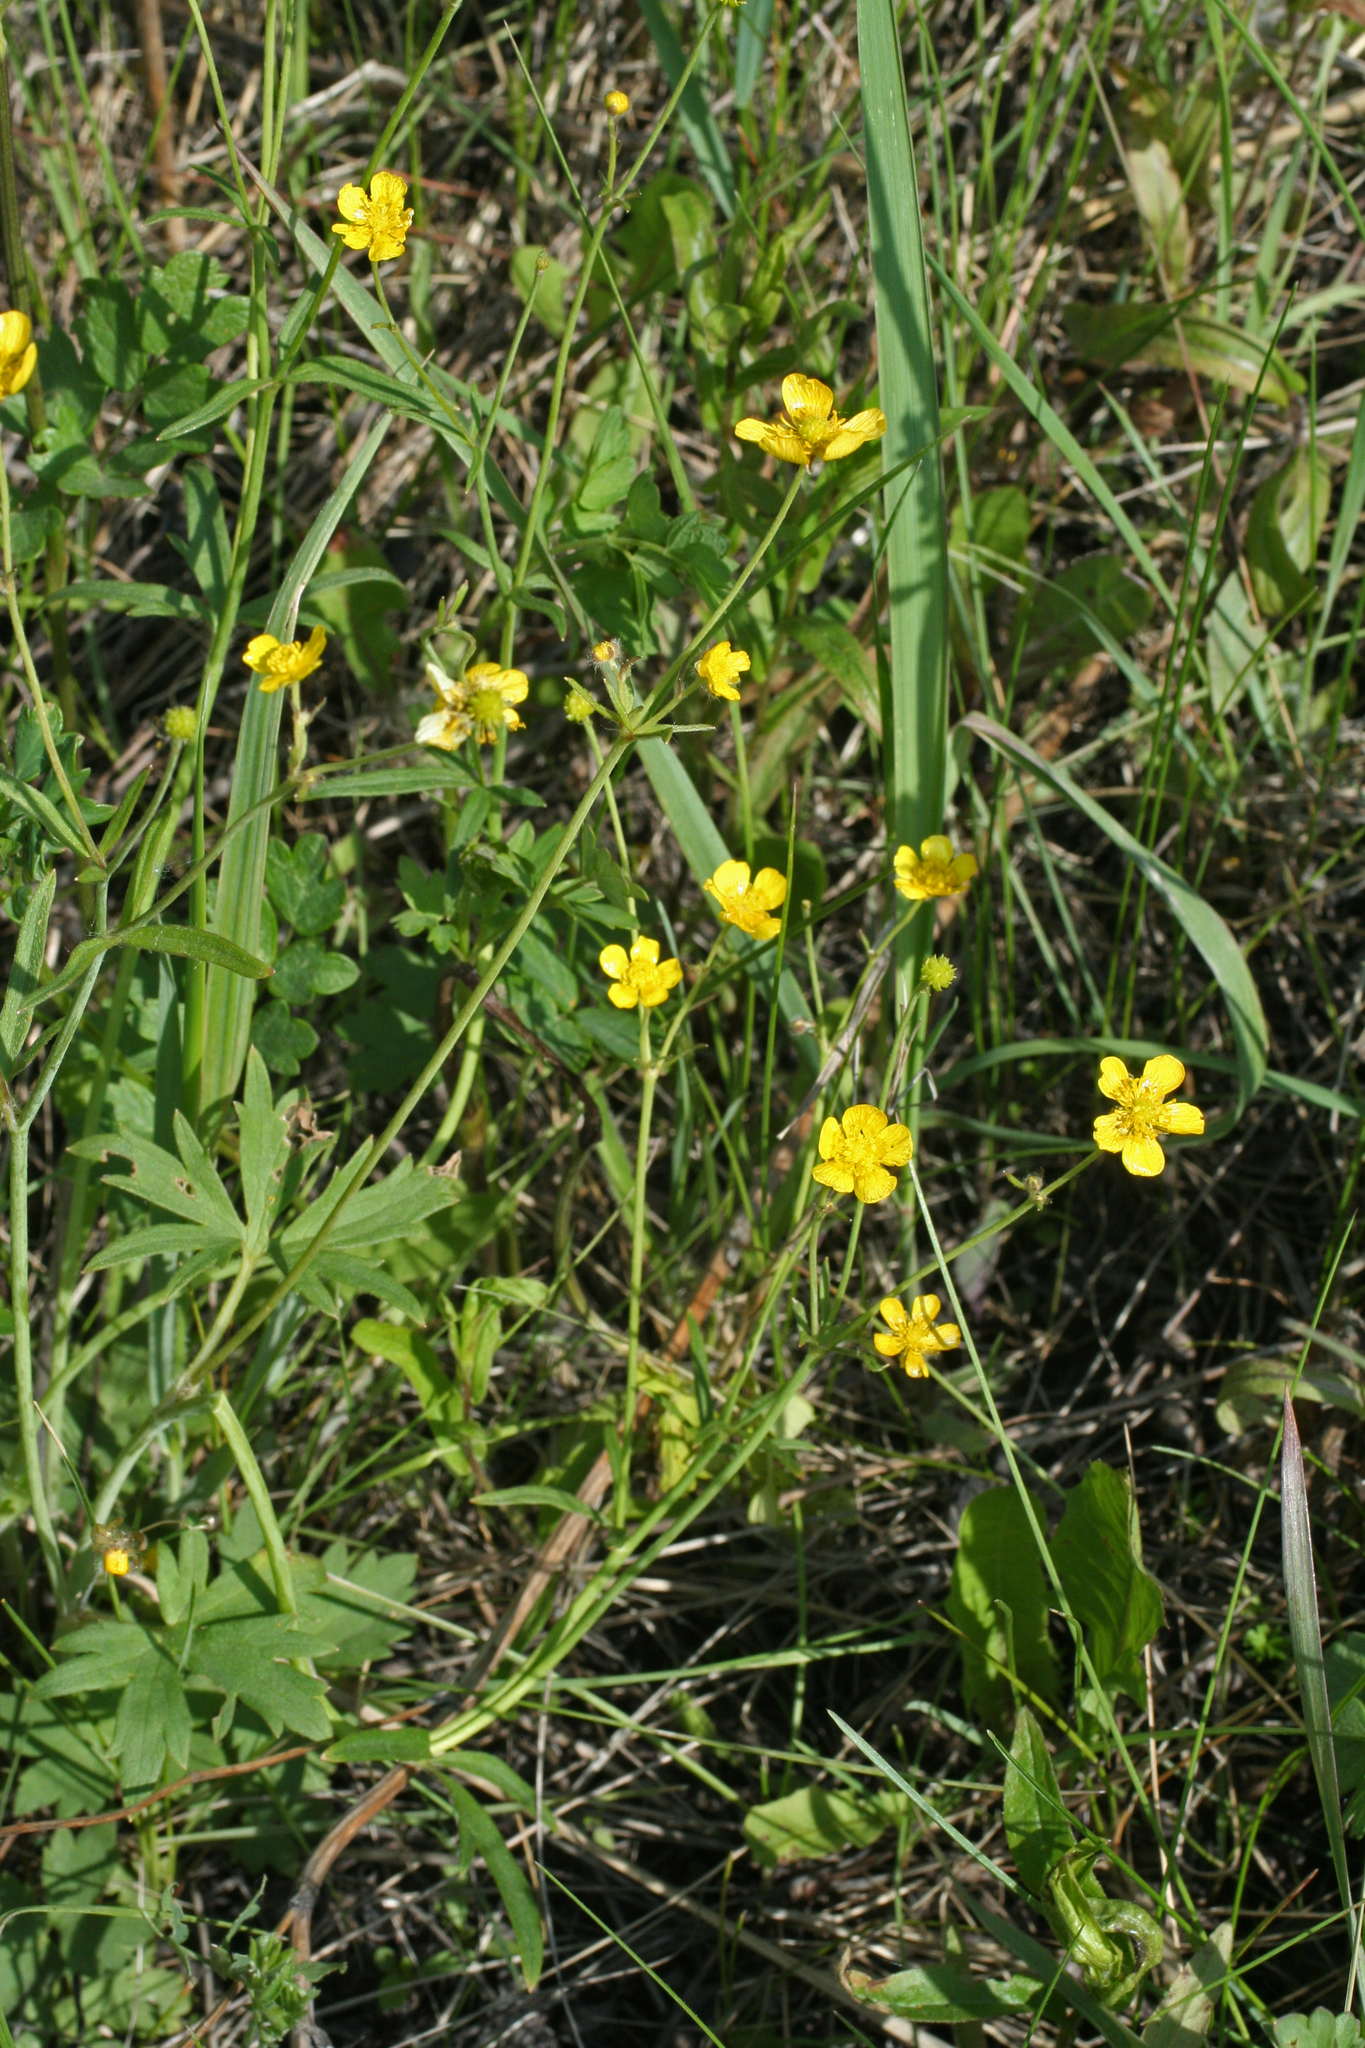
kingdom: Plantae
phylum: Tracheophyta
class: Magnoliopsida
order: Ranunculales
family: Ranunculaceae
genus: Ranunculus
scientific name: Ranunculus acris
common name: Meadow buttercup
